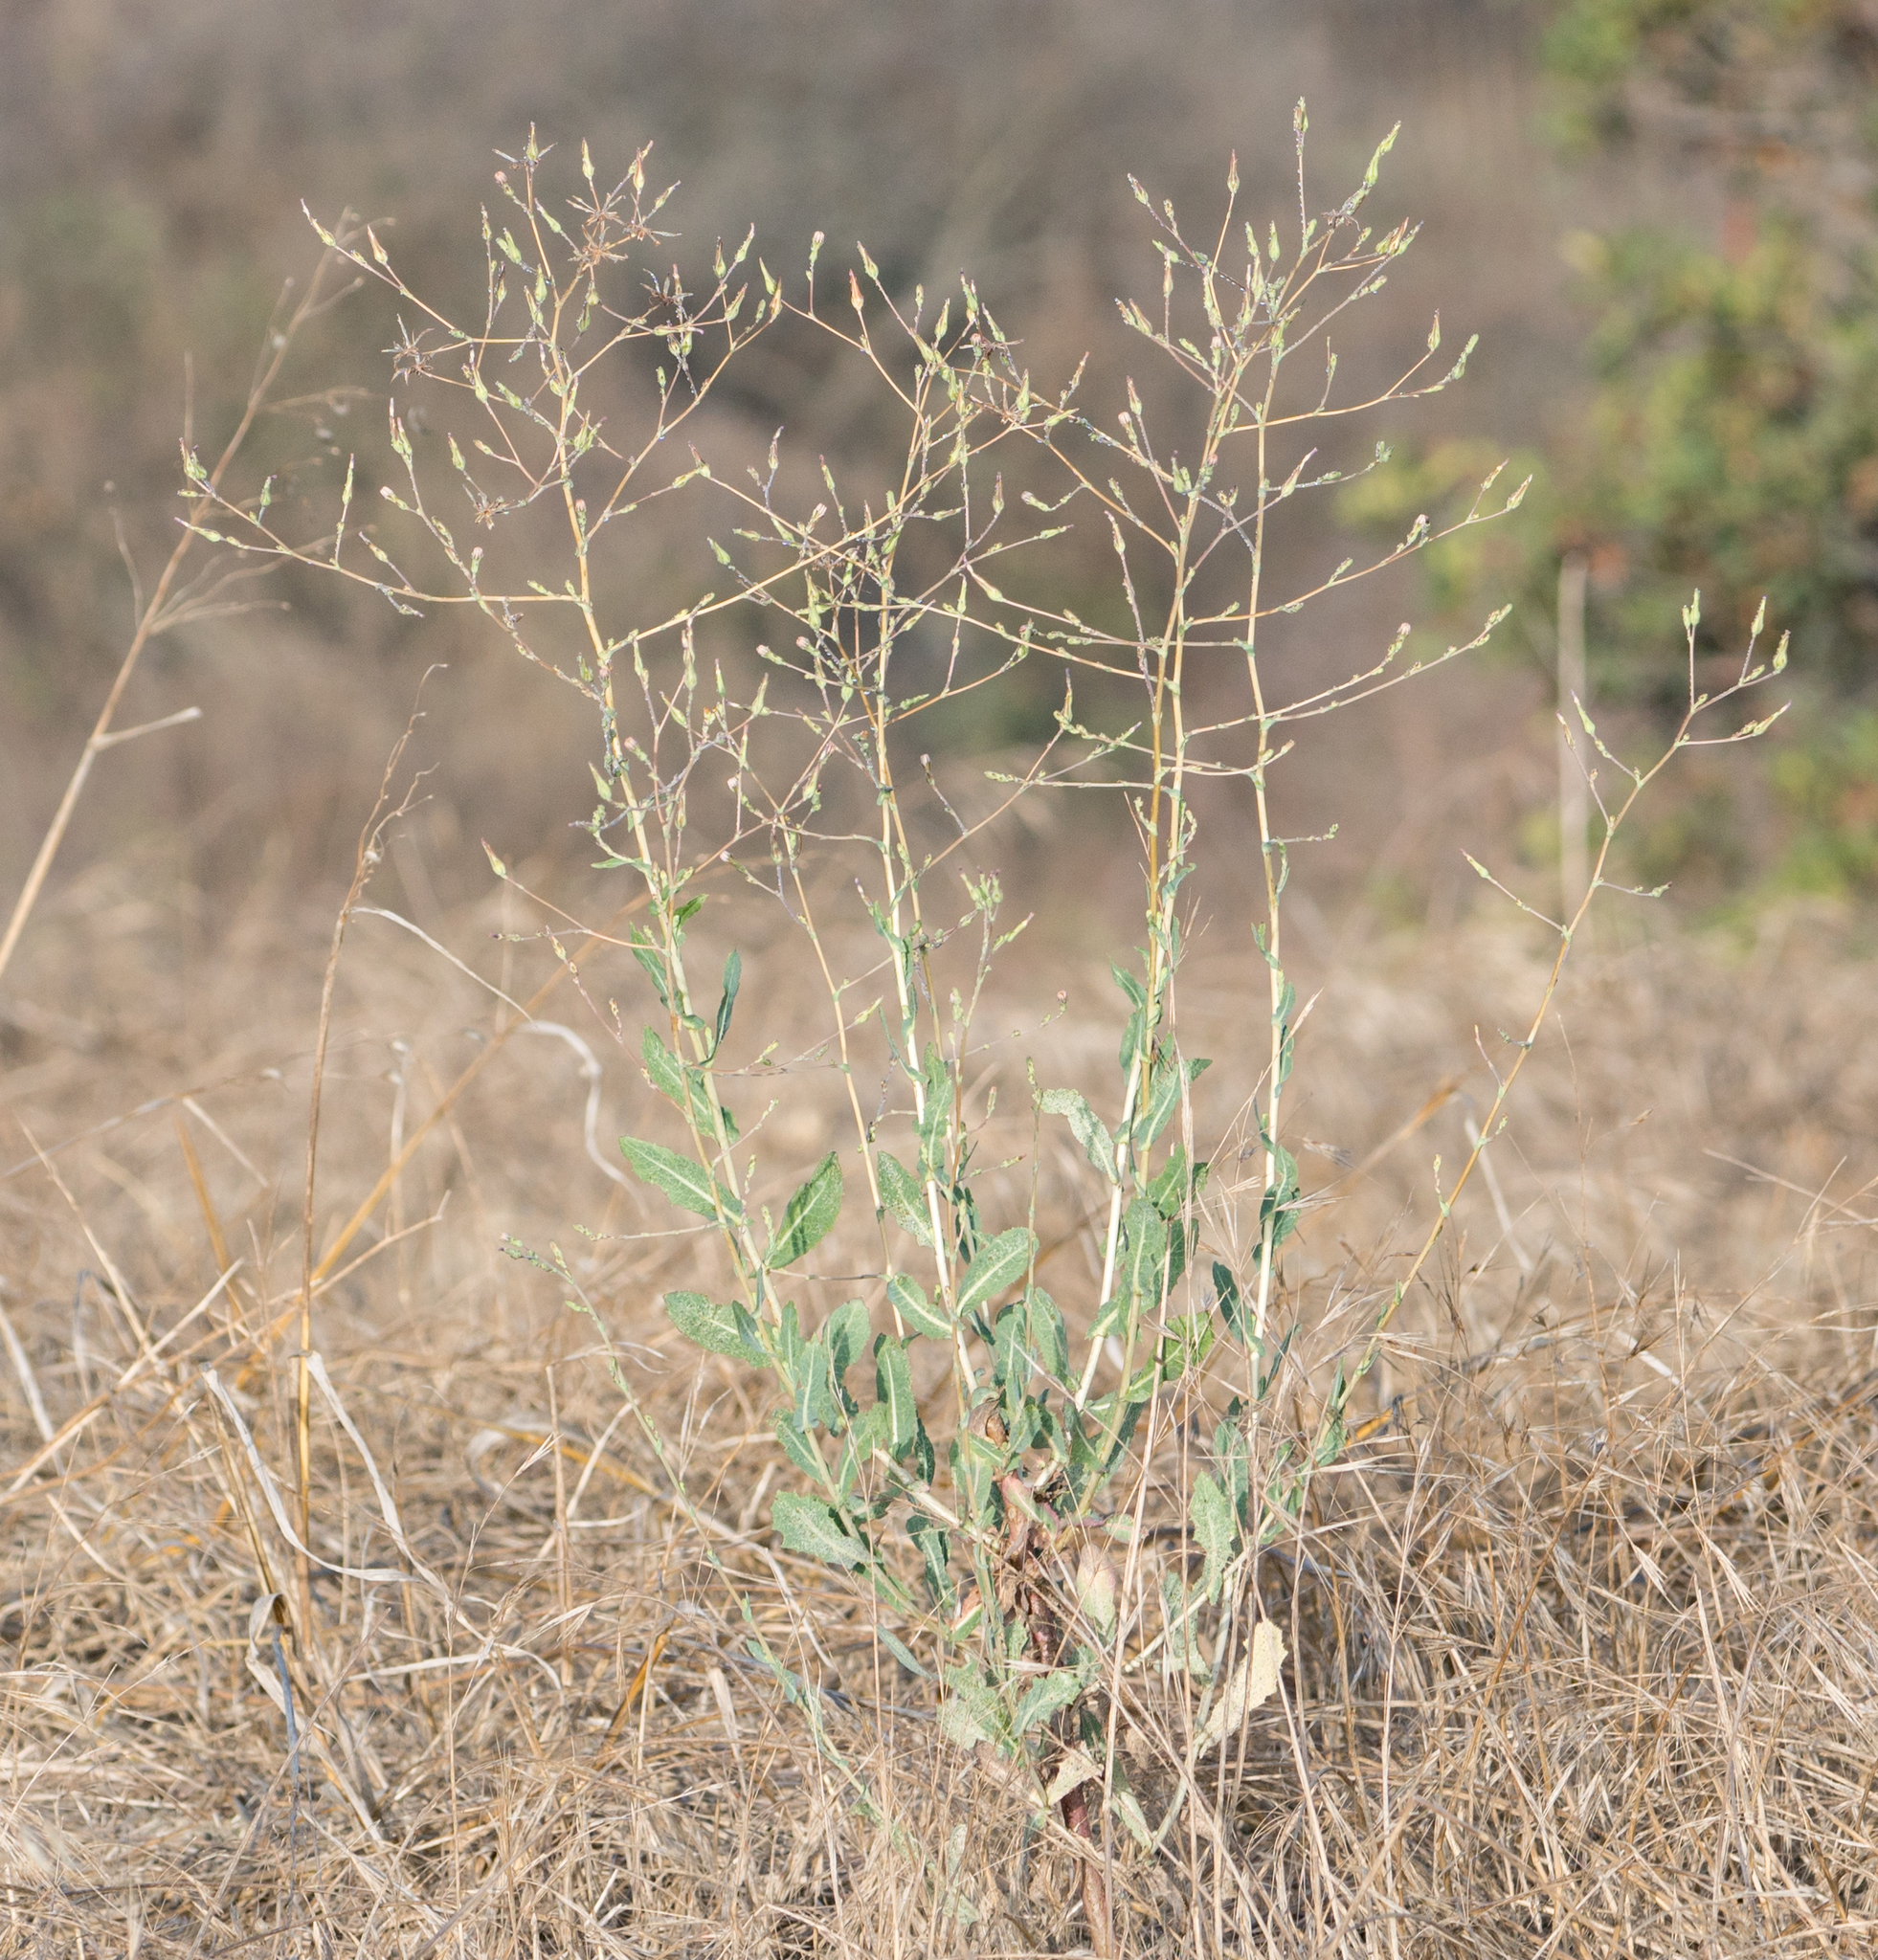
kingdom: Plantae
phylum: Tracheophyta
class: Magnoliopsida
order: Asterales
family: Asteraceae
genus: Lactuca
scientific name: Lactuca serriola
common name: Prickly lettuce
